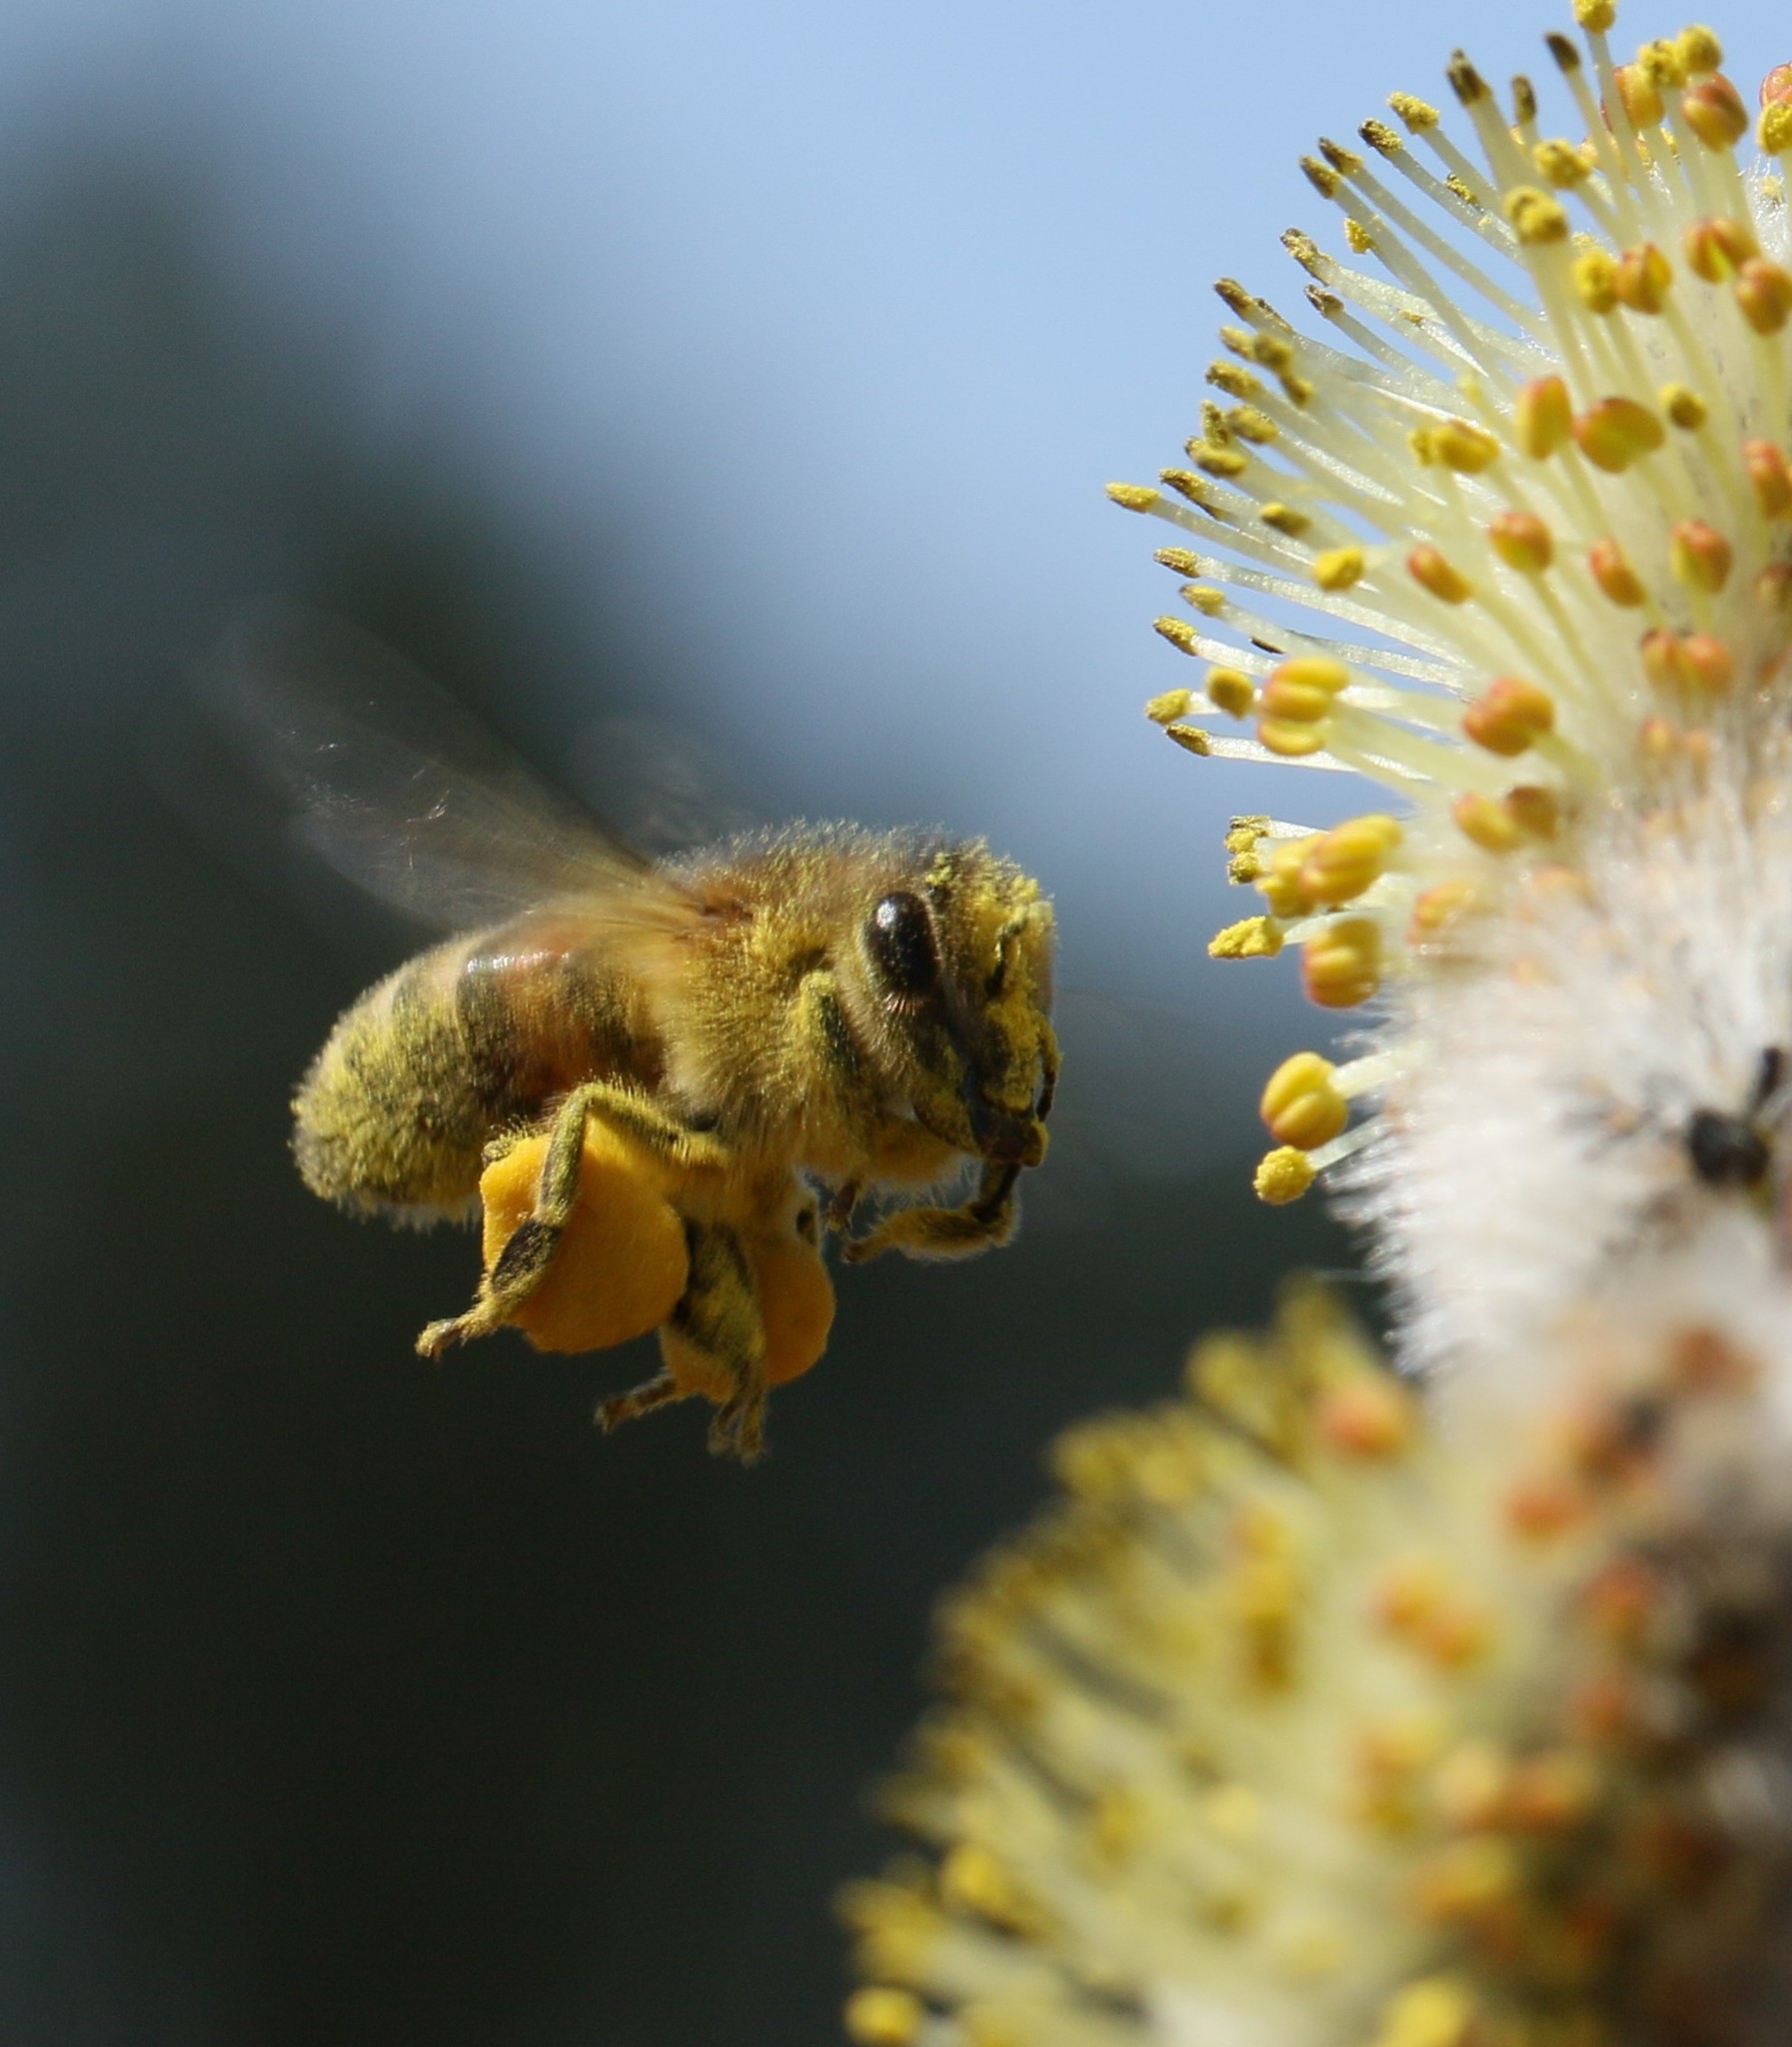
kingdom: Animalia
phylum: Arthropoda
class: Insecta
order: Hymenoptera
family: Apidae
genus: Apis
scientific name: Apis mellifera
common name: Honey bee
